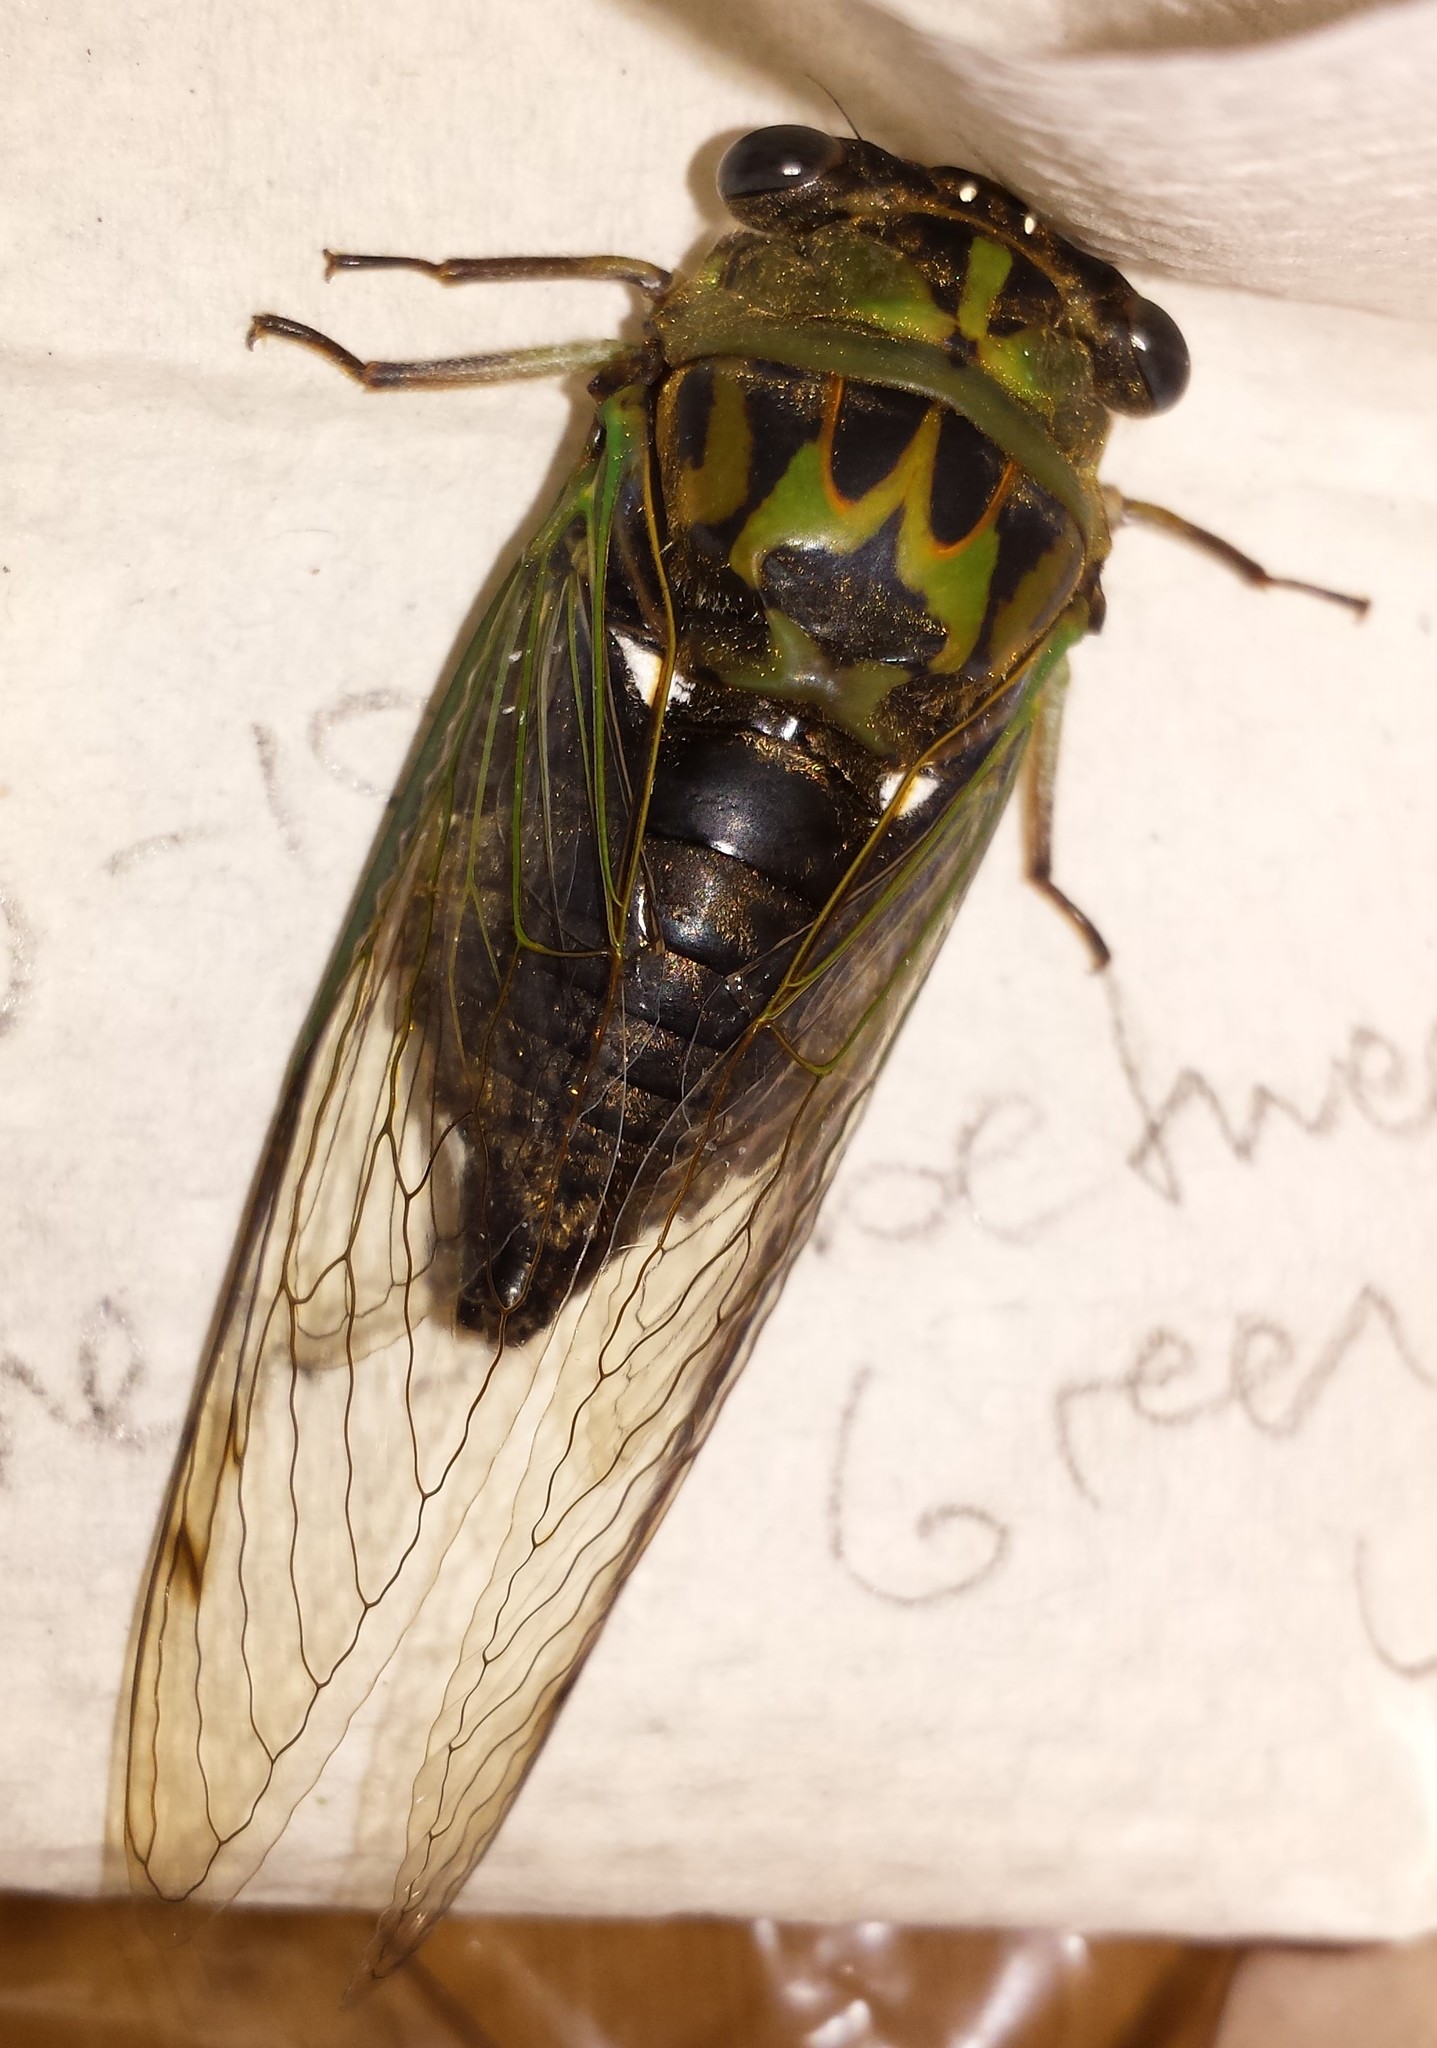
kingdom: Animalia
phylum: Arthropoda
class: Insecta
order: Hemiptera
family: Cicadidae
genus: Neotibicen
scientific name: Neotibicen pruinosus
